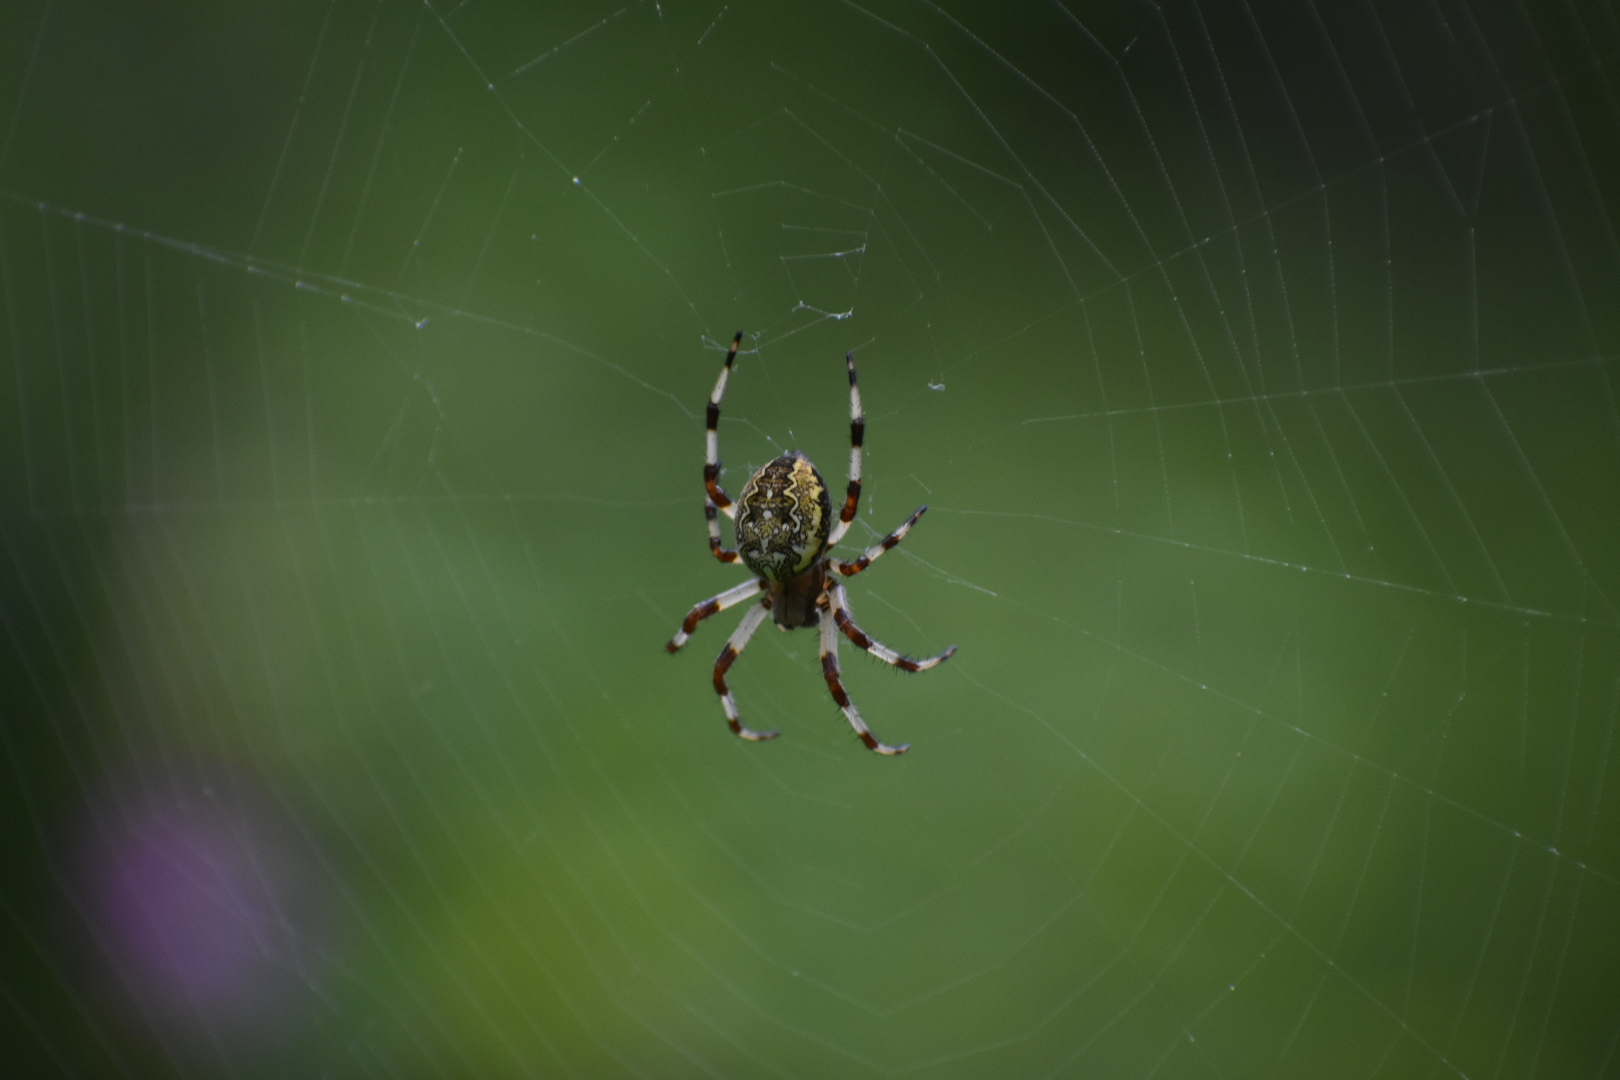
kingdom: Animalia
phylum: Arthropoda
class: Arachnida
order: Araneae
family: Araneidae
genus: Araneus
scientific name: Araneus marmoreus
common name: Marbled orbweaver
